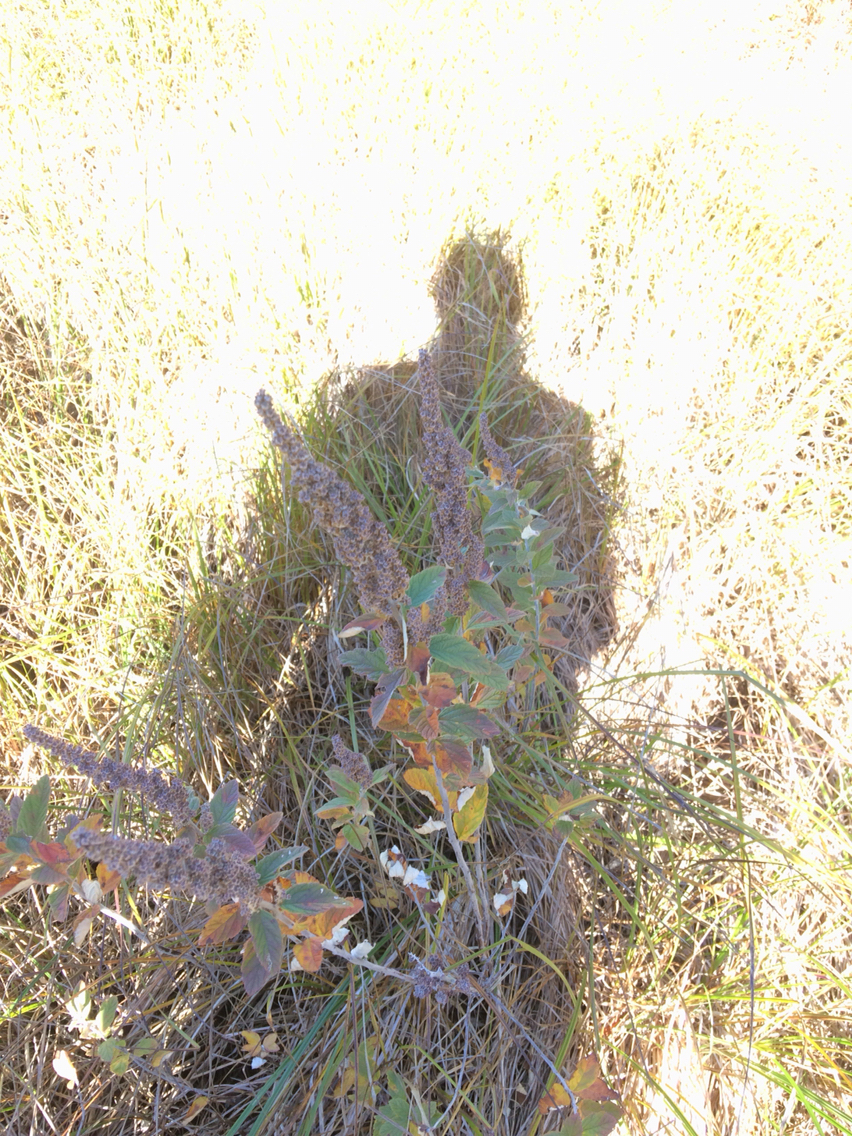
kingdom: Plantae
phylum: Tracheophyta
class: Magnoliopsida
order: Rosales
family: Rosaceae
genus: Spiraea
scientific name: Spiraea tomentosa
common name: Hardhack
